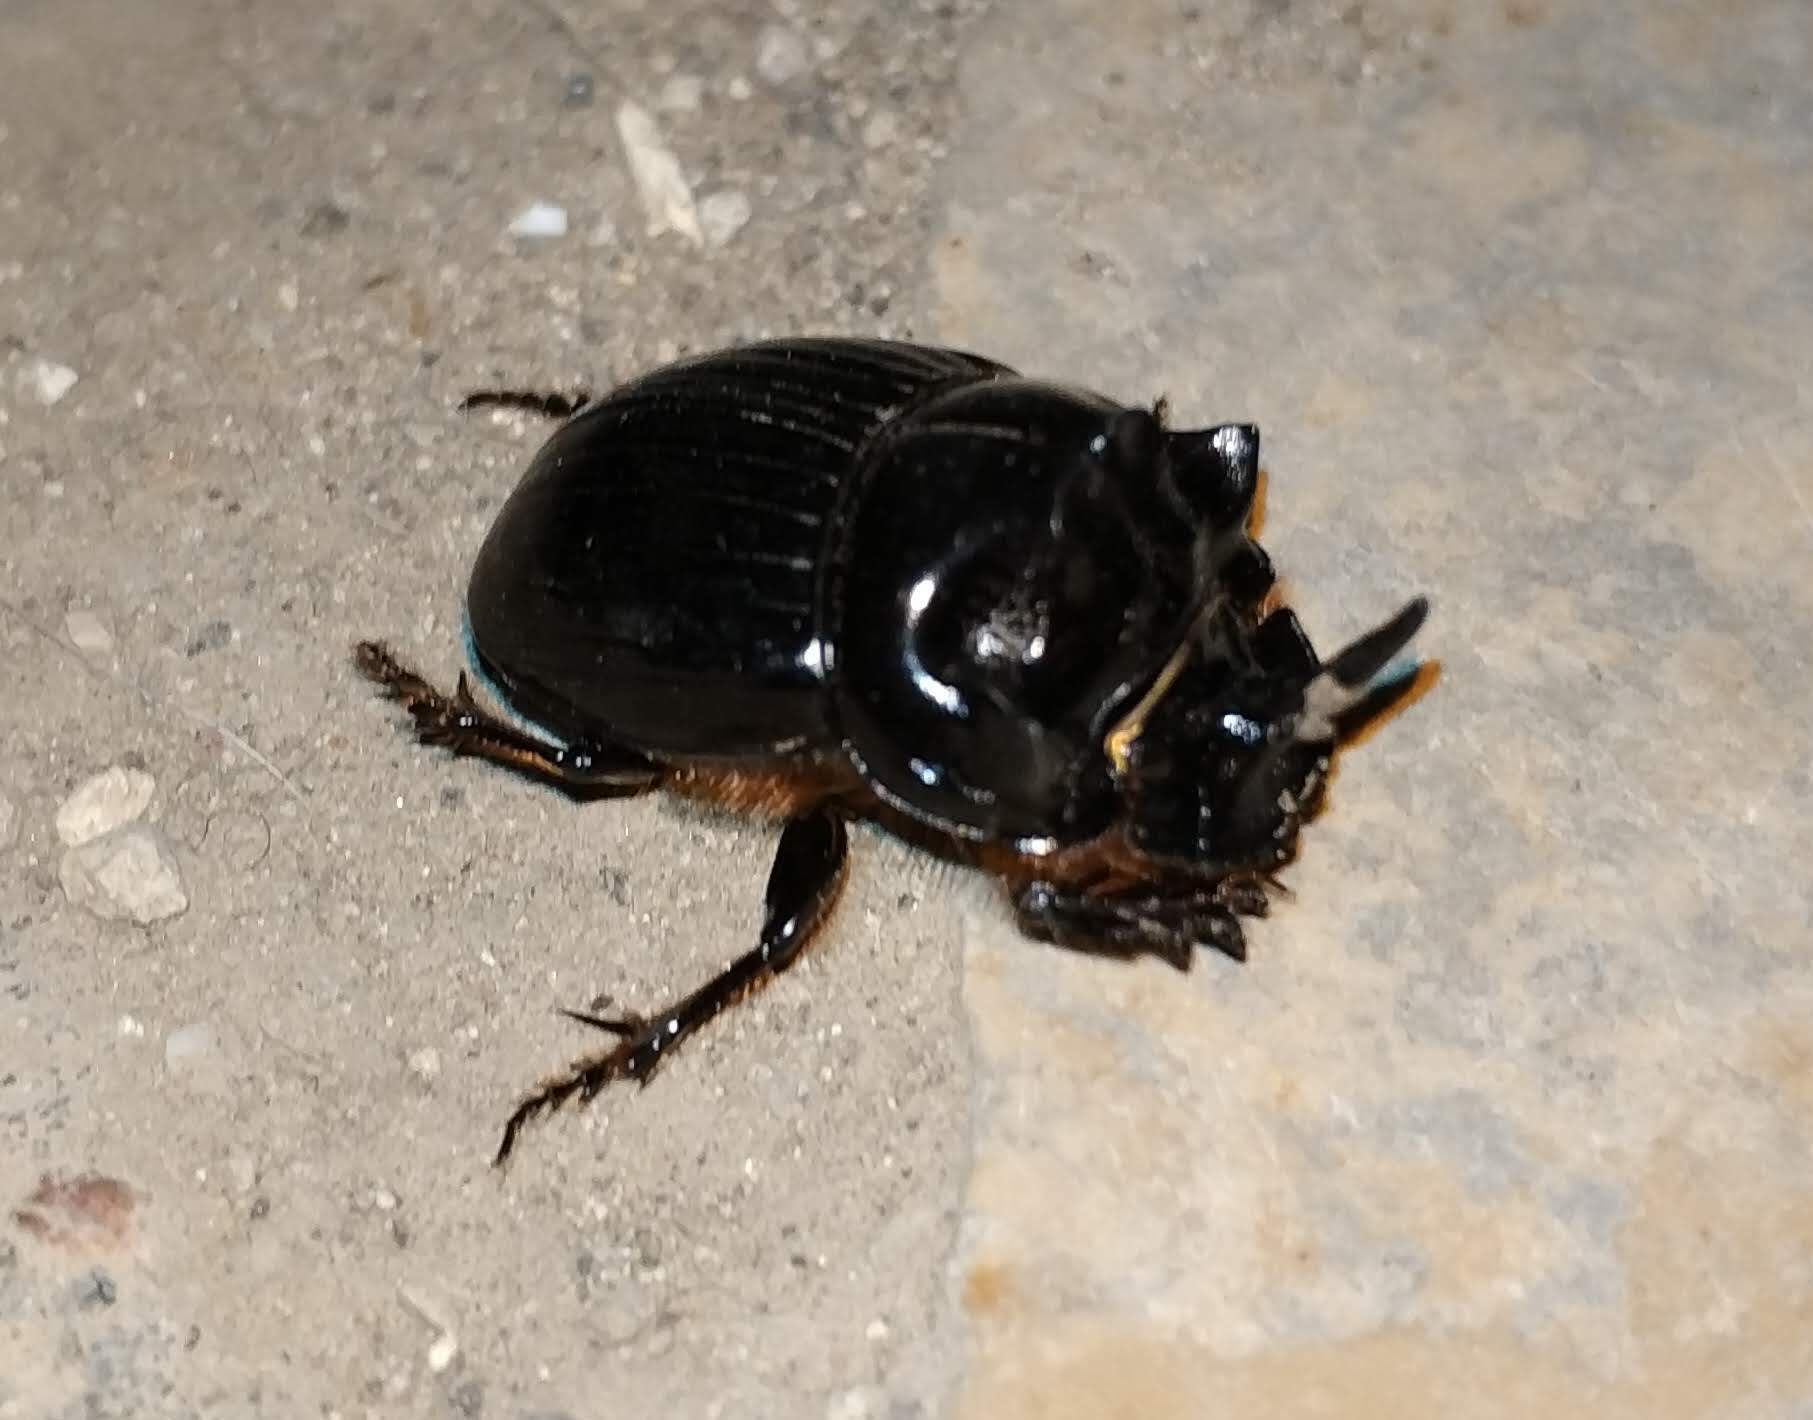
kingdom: Animalia
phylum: Arthropoda
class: Insecta
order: Coleoptera
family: Scarabaeidae
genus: Copris
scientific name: Copris lunaris
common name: Horned dung beetle
